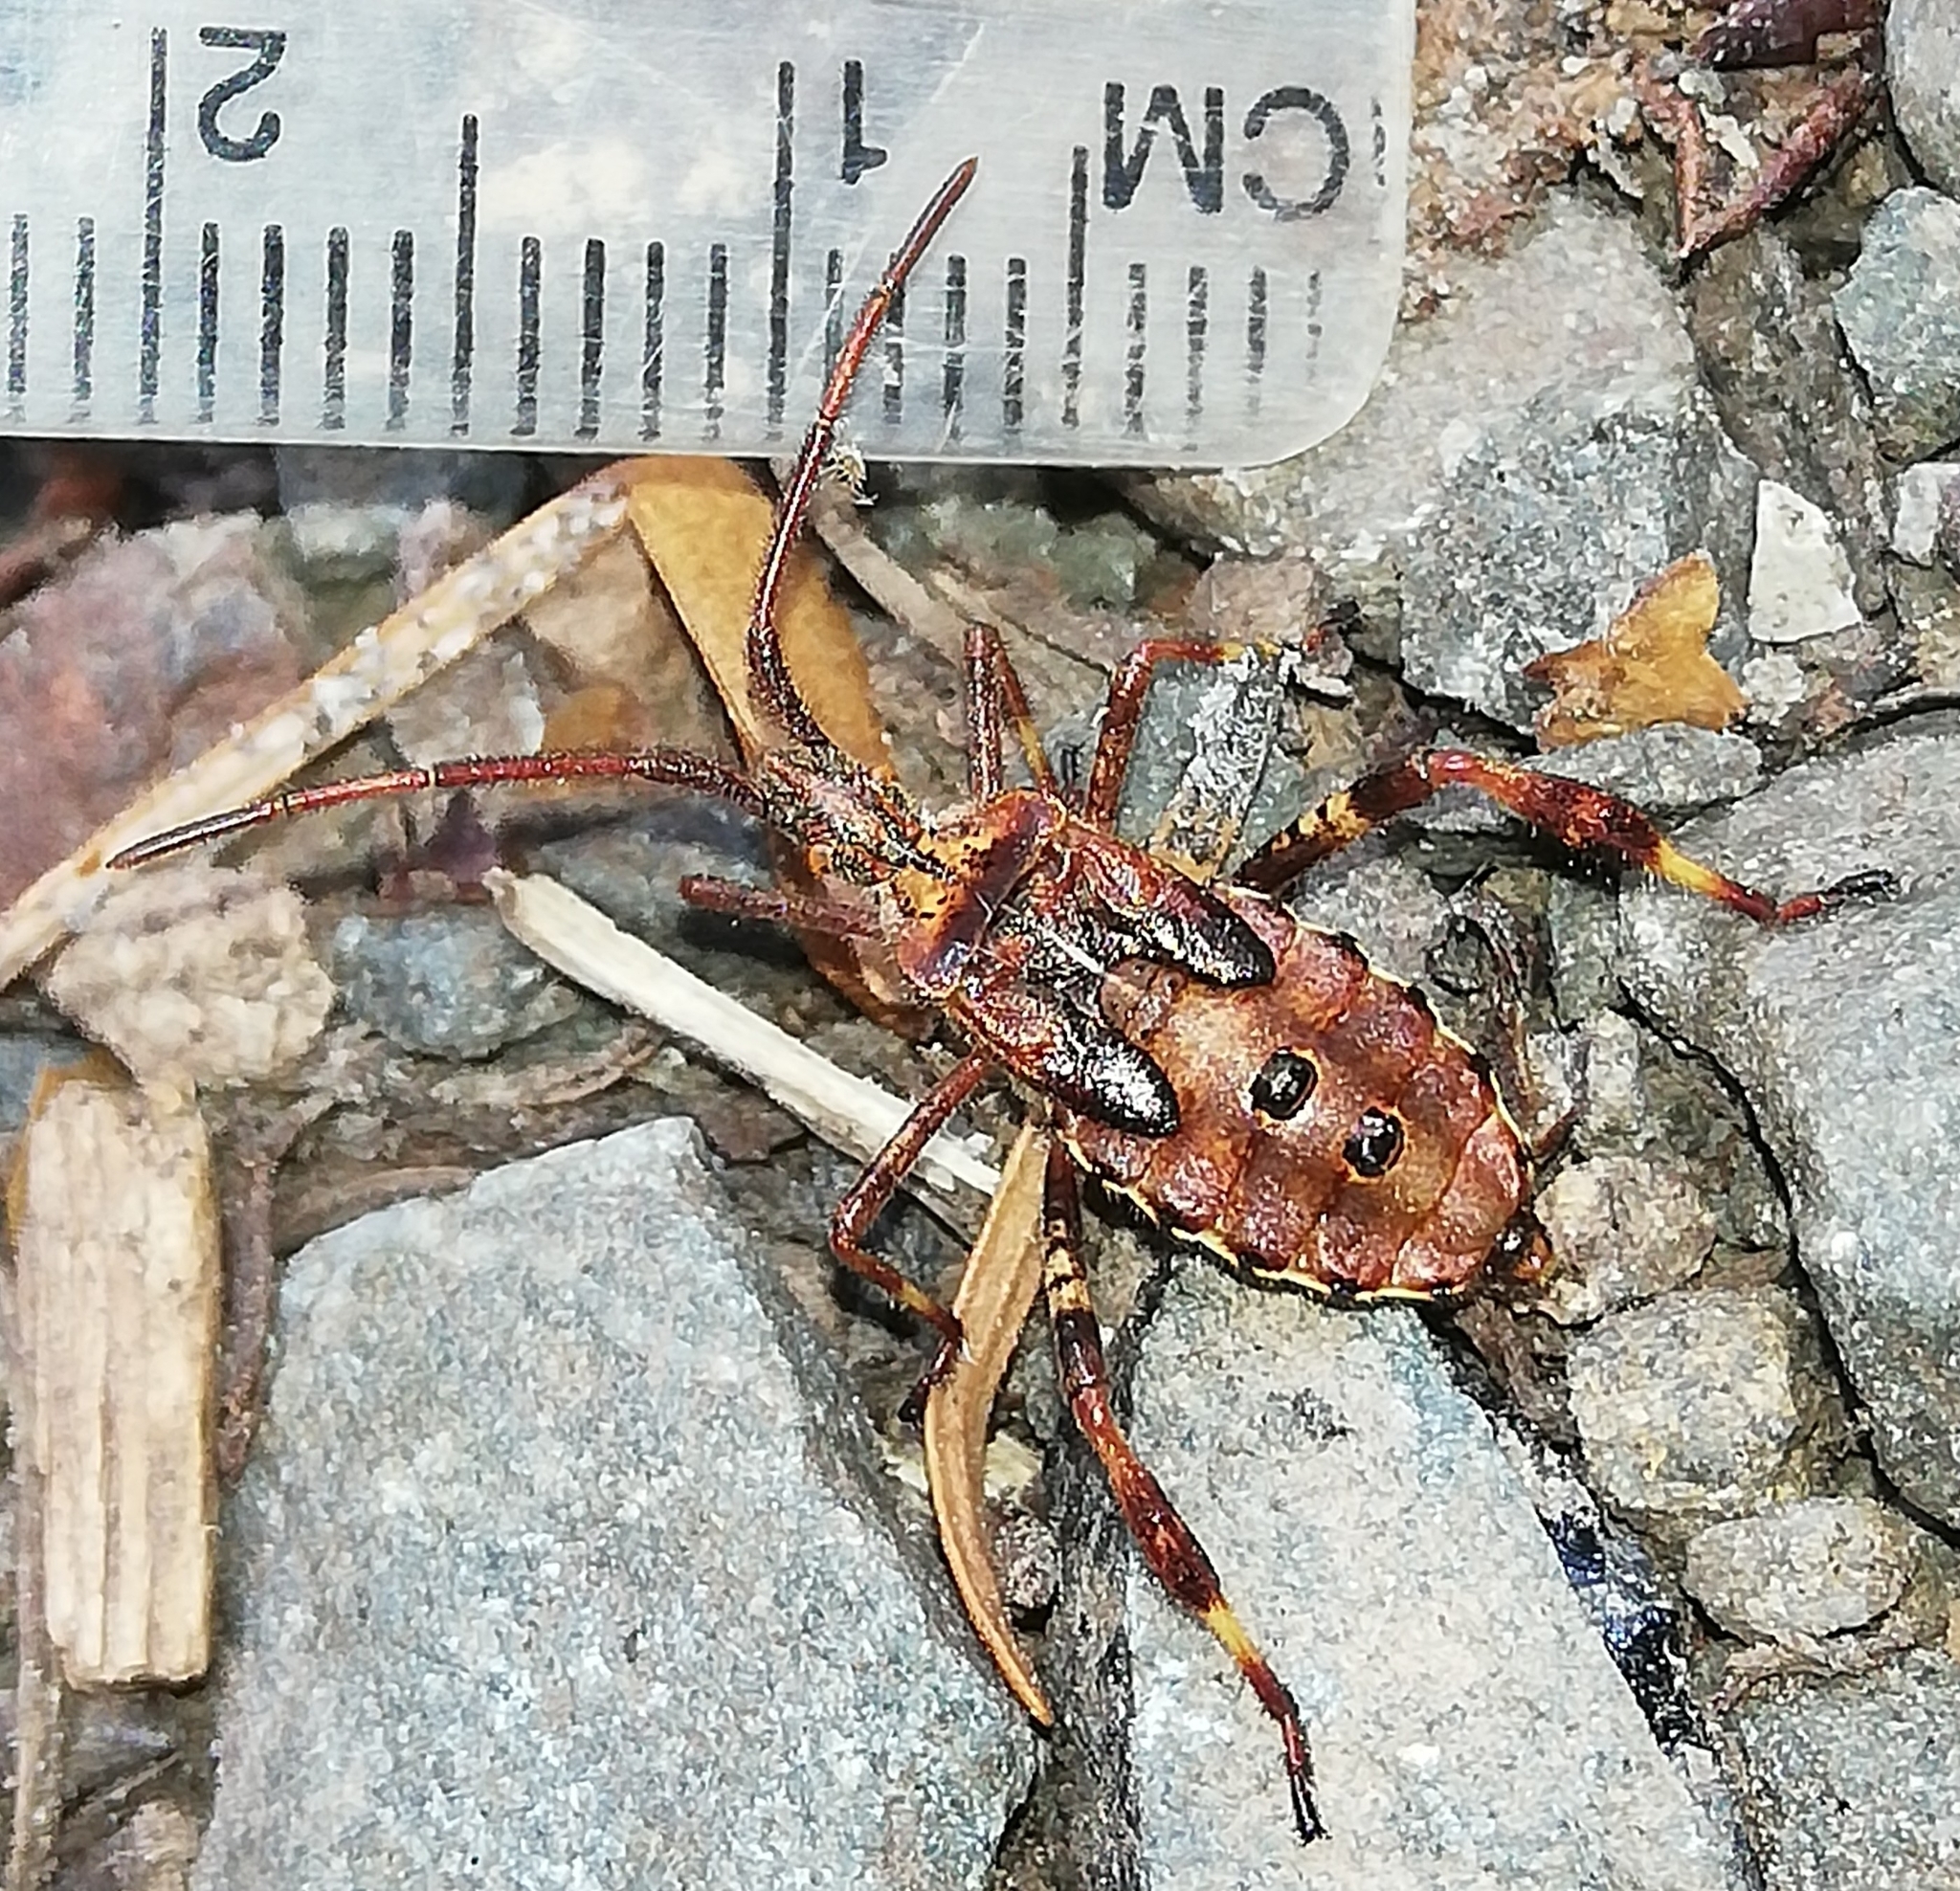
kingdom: Animalia
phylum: Arthropoda
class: Insecta
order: Hemiptera
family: Coreidae
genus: Leptoglossus
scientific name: Leptoglossus occidentalis
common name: Western conifer-seed bug
